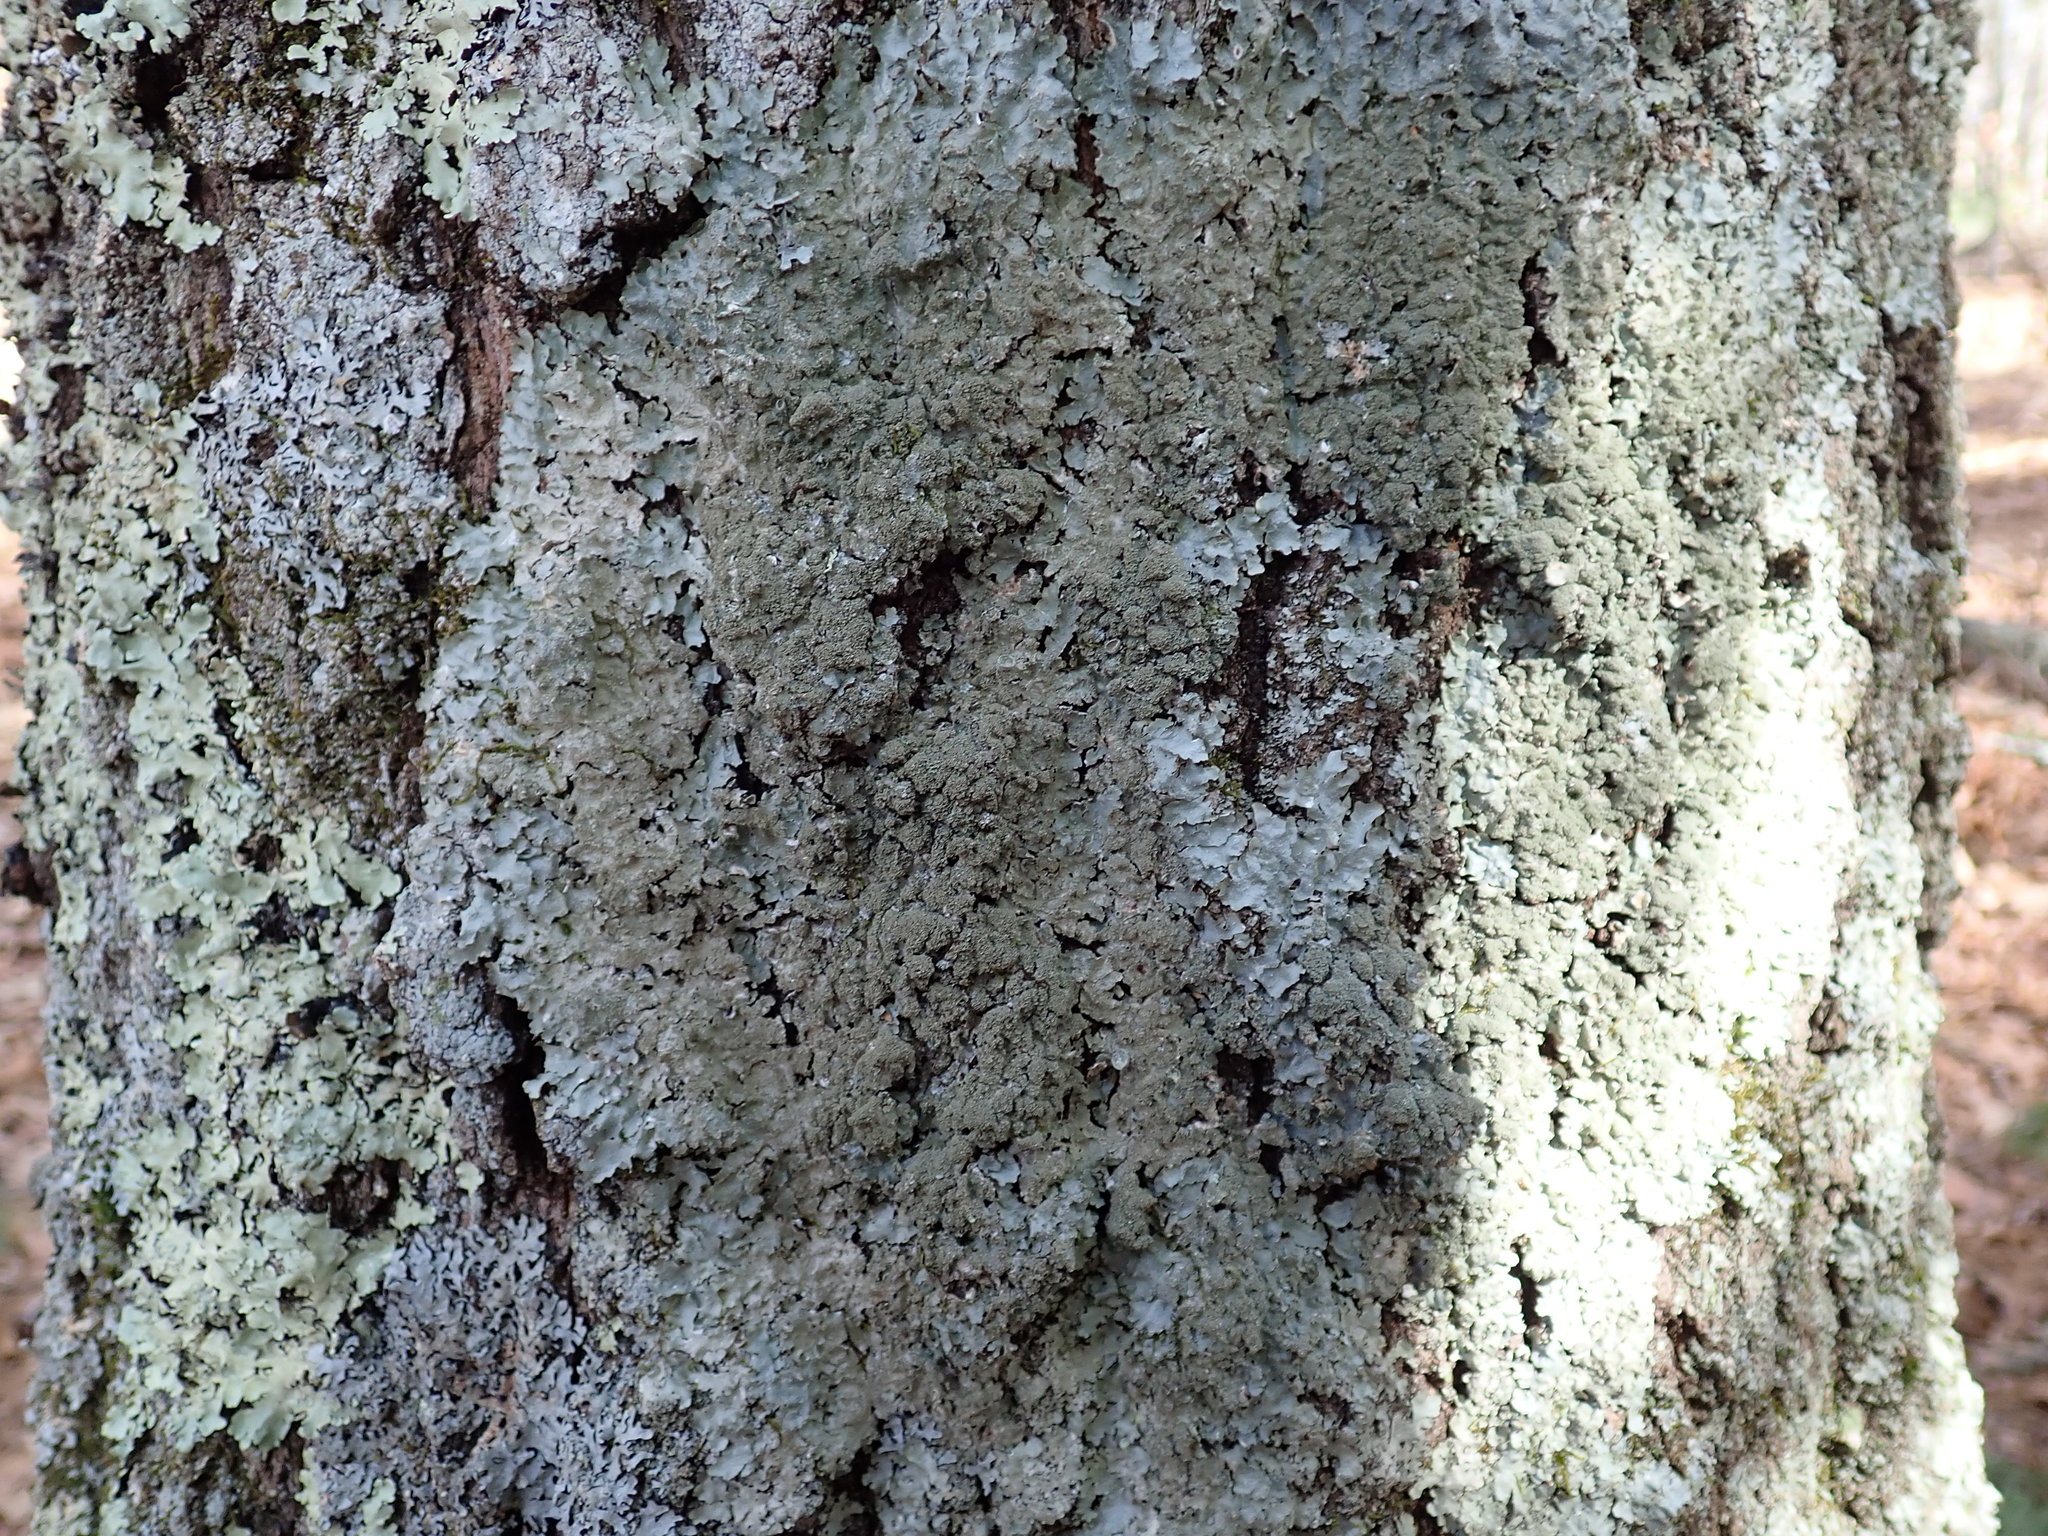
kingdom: Fungi
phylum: Ascomycota
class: Lecanoromycetes
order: Lecanorales
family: Parmeliaceae
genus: Punctelia
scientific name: Punctelia rudecta
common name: Rough speckled shield lichen
